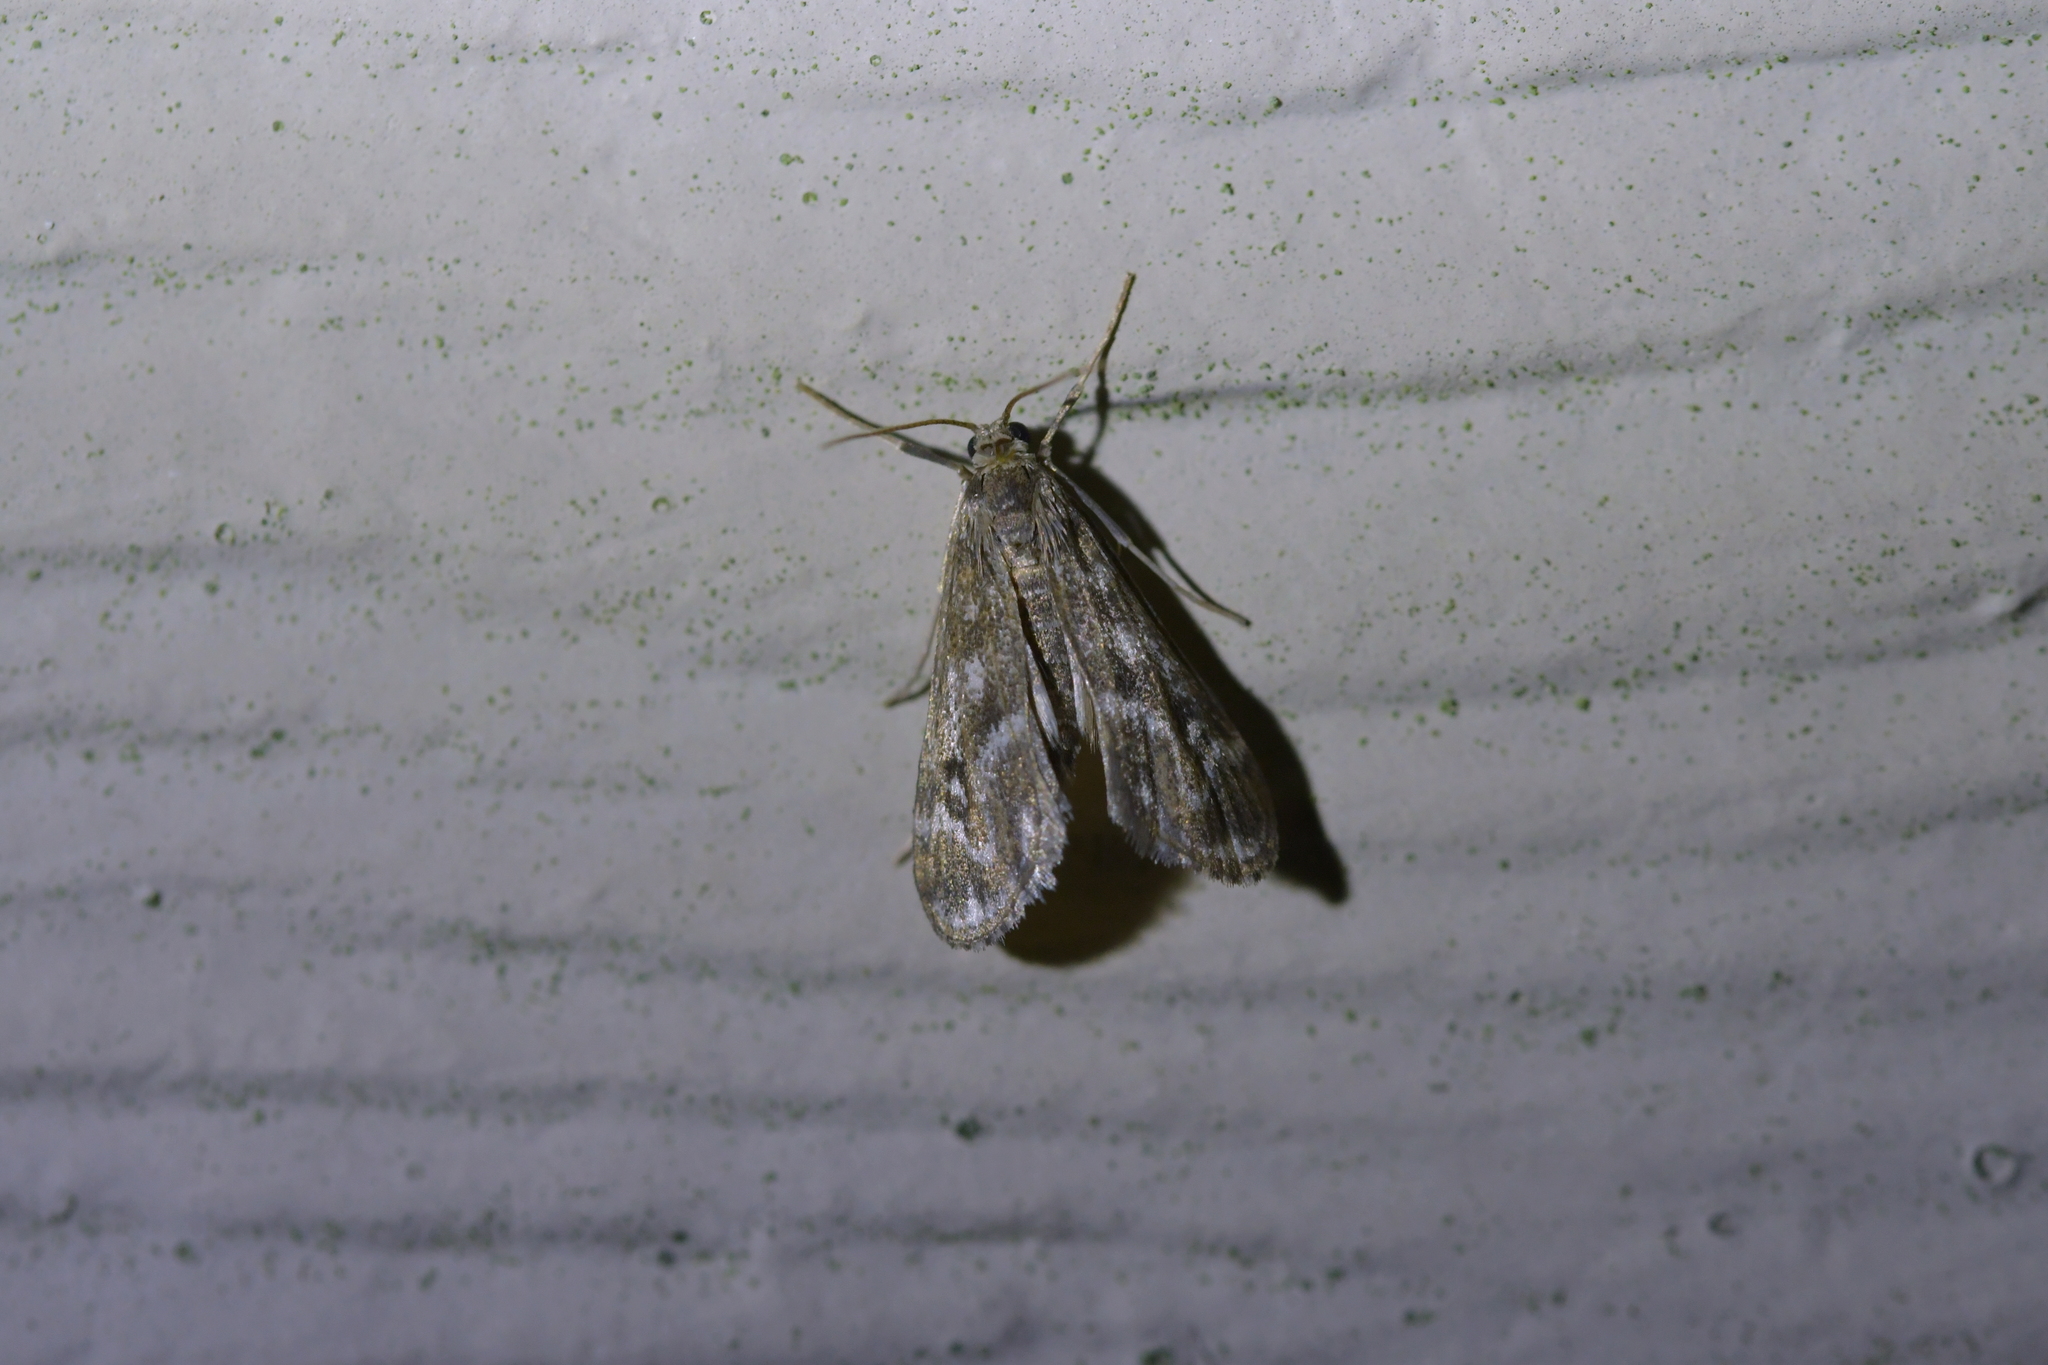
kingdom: Animalia
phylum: Arthropoda
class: Insecta
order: Lepidoptera
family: Crambidae
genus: Hygraula
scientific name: Hygraula nitens
